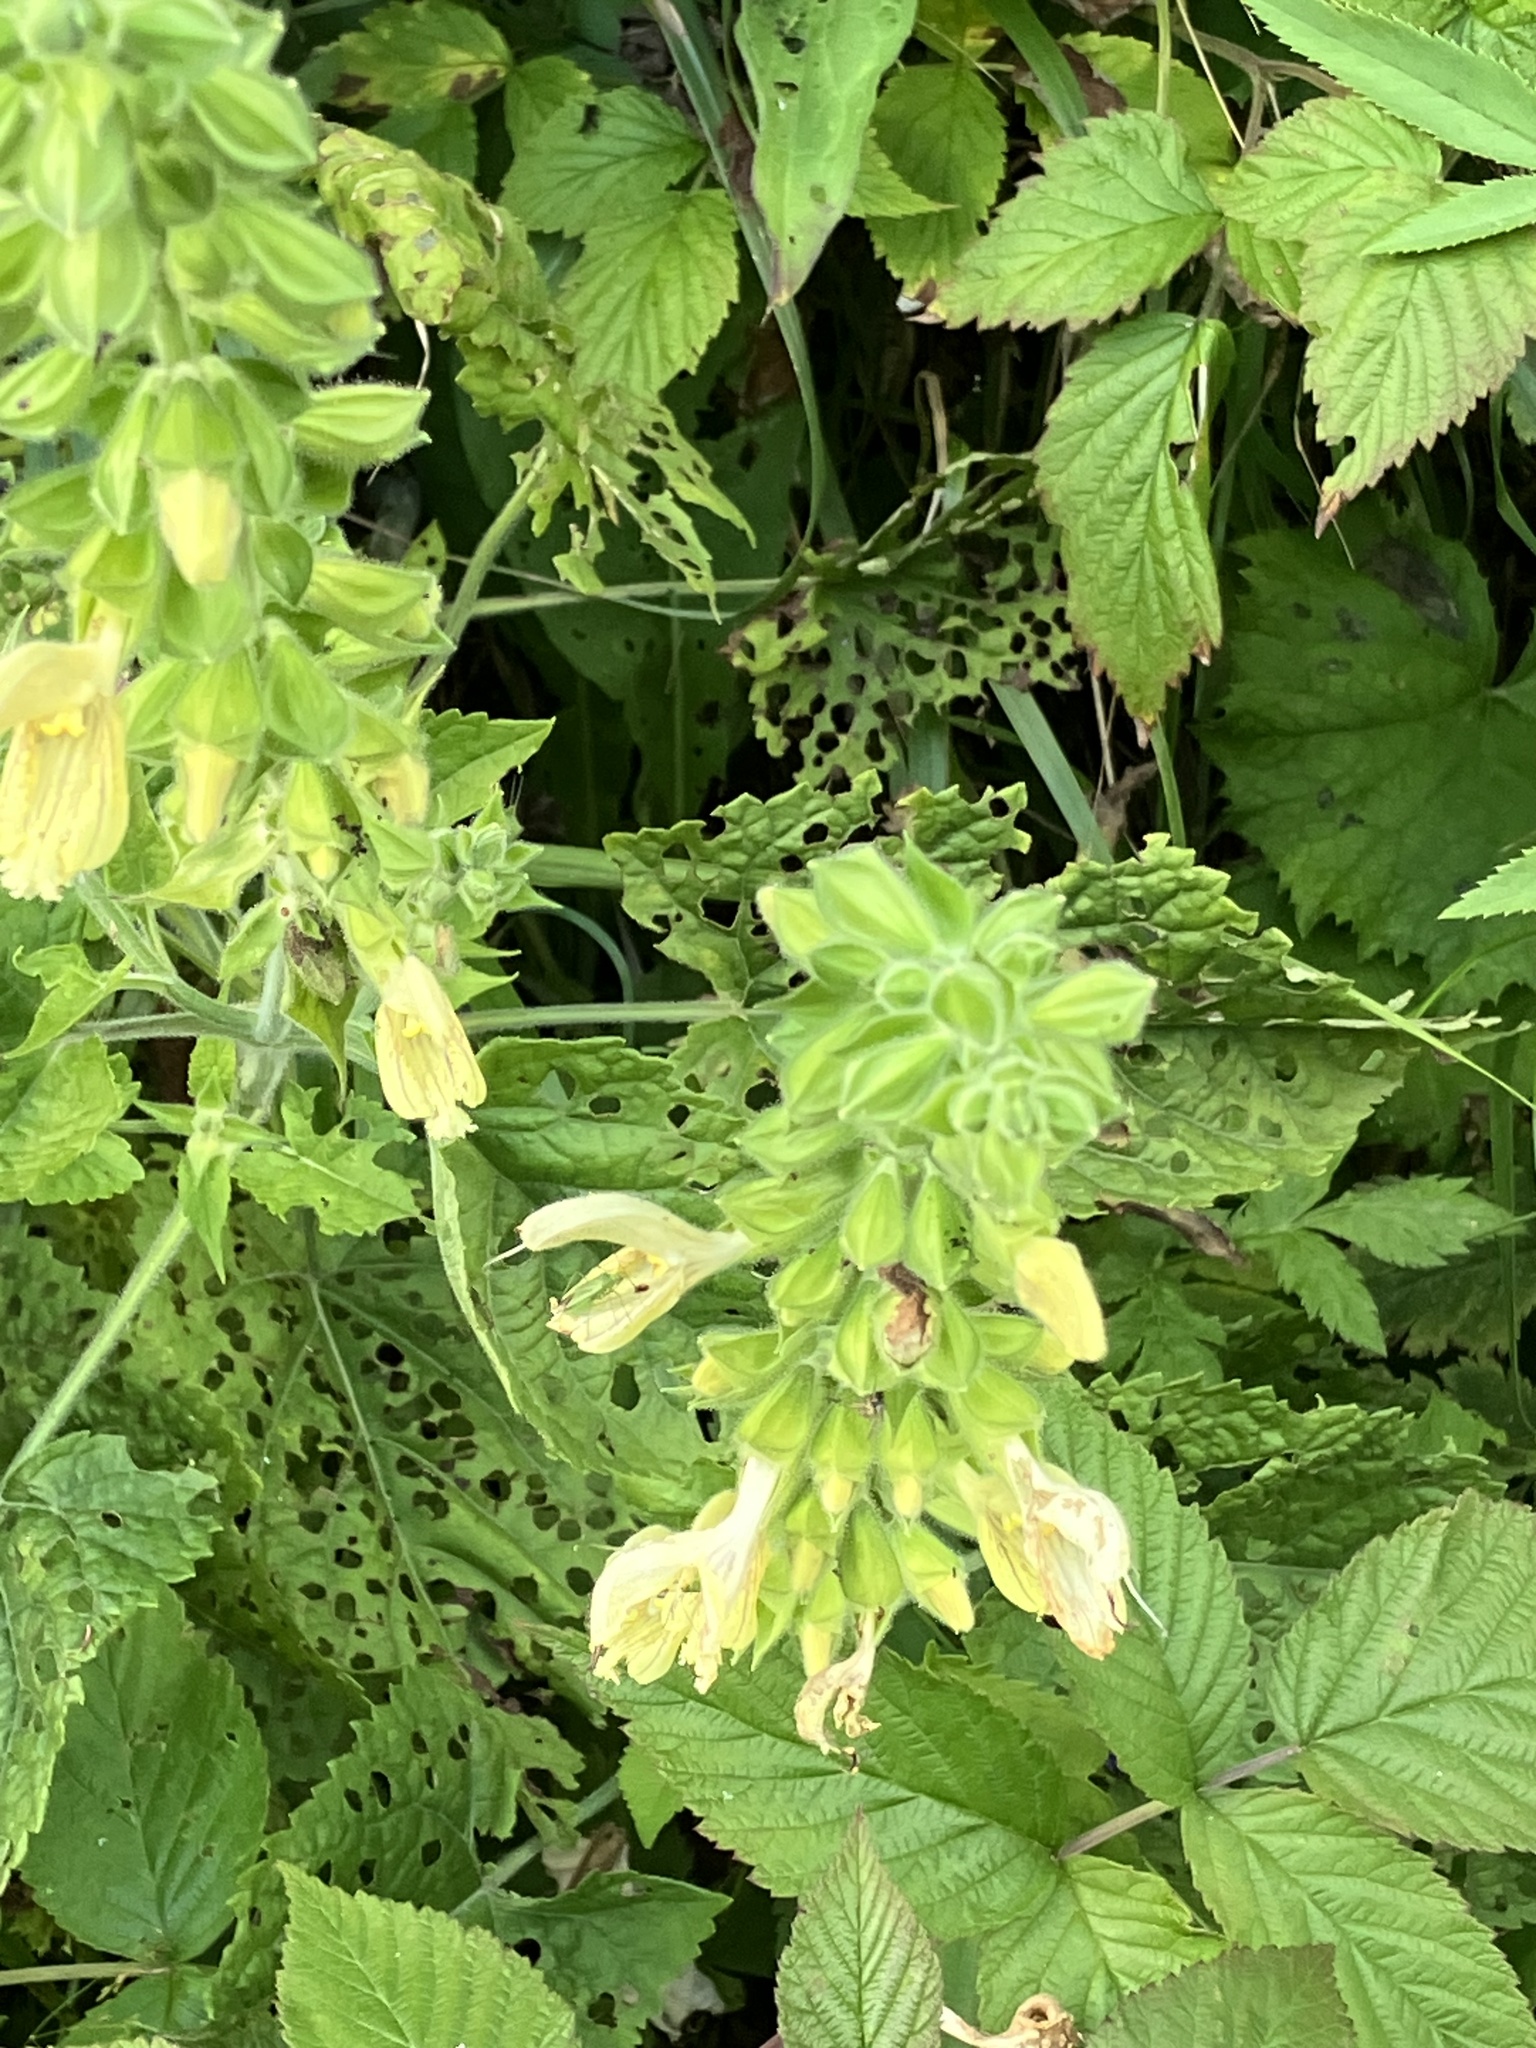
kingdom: Plantae
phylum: Tracheophyta
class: Magnoliopsida
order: Lamiales
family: Lamiaceae
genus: Salvia
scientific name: Salvia glutinosa
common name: Sticky clary
